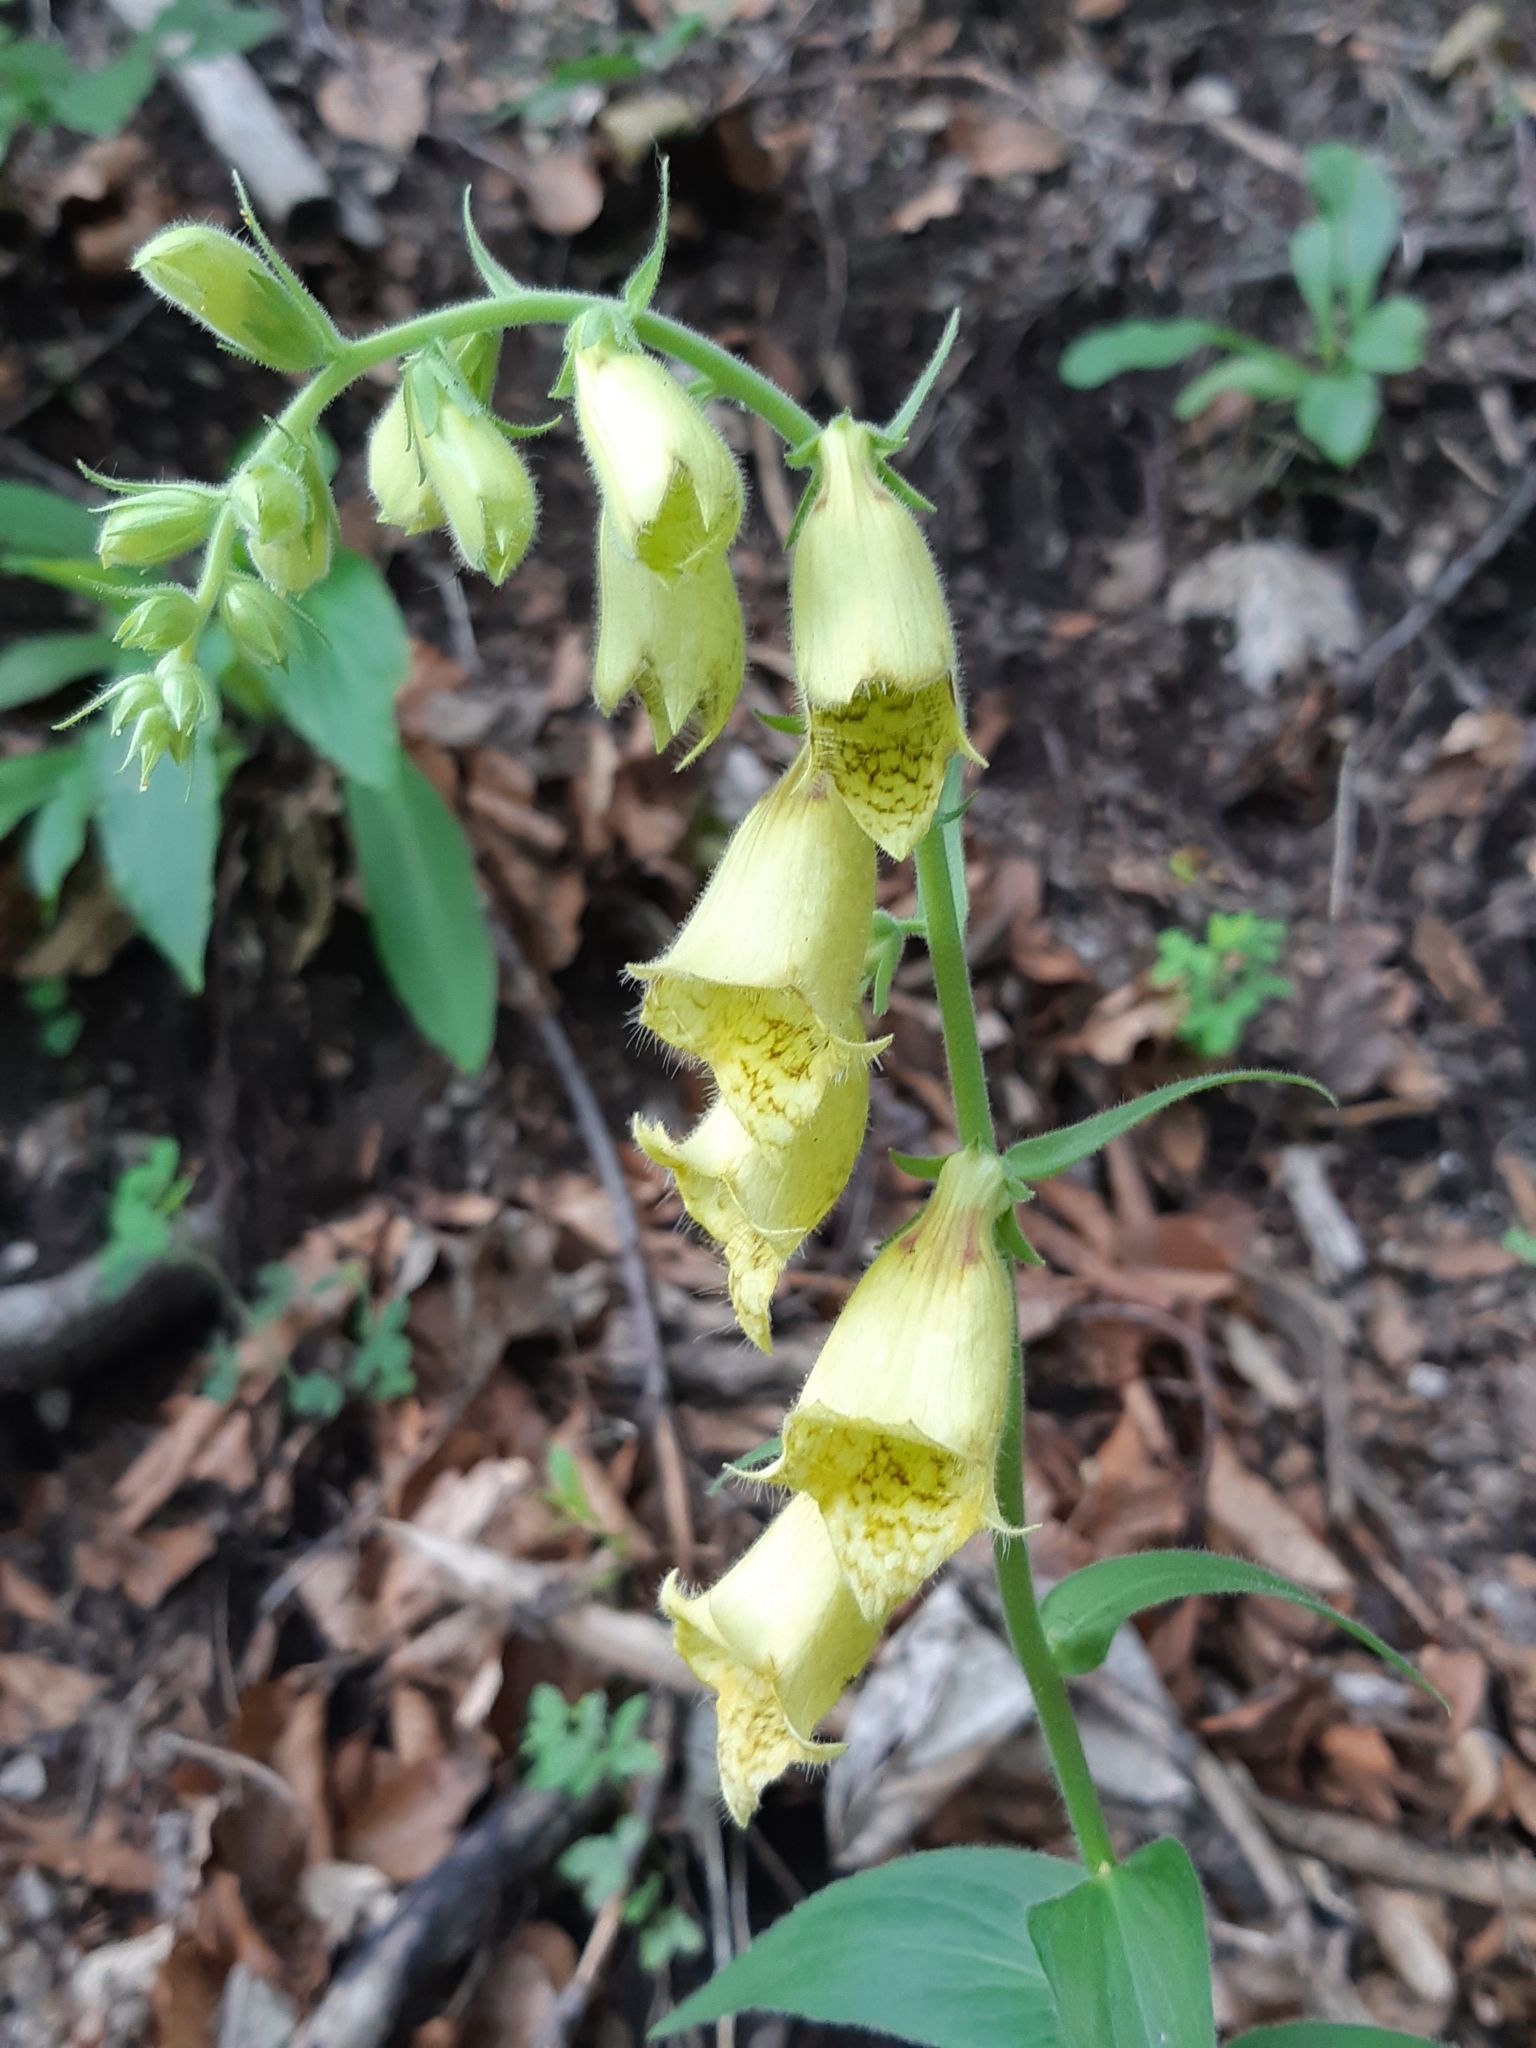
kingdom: Plantae
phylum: Tracheophyta
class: Magnoliopsida
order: Lamiales
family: Plantaginaceae
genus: Digitalis
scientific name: Digitalis grandiflora
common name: Yellow foxglove
